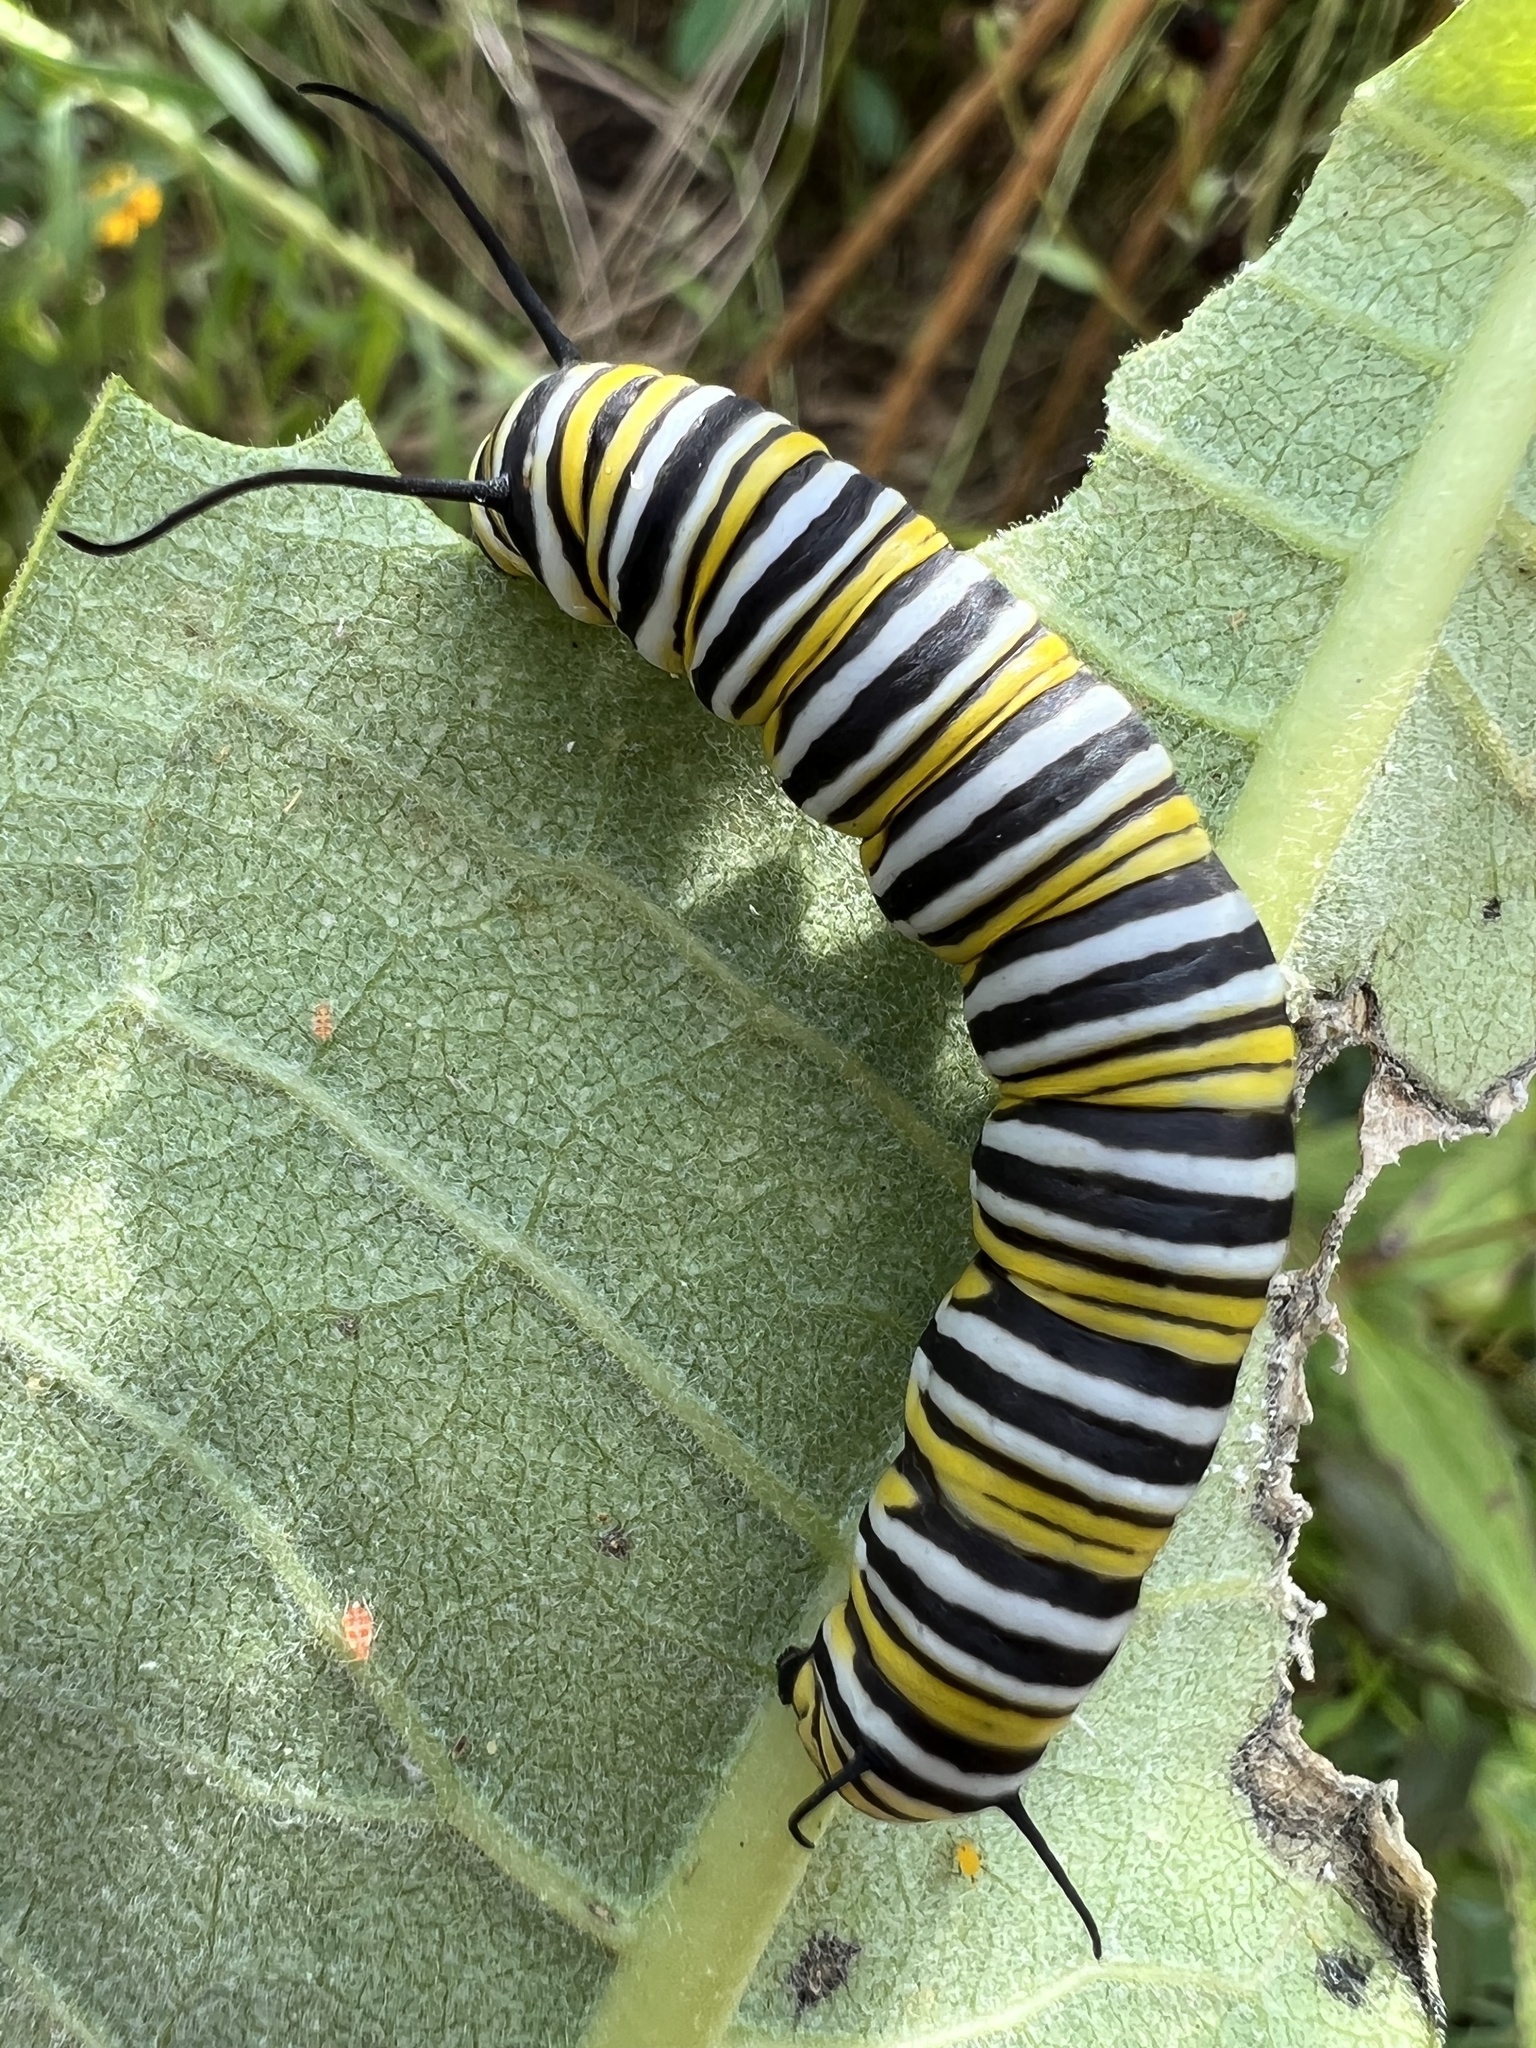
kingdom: Animalia
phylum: Arthropoda
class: Insecta
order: Lepidoptera
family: Nymphalidae
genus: Danaus
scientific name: Danaus plexippus
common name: Monarch
